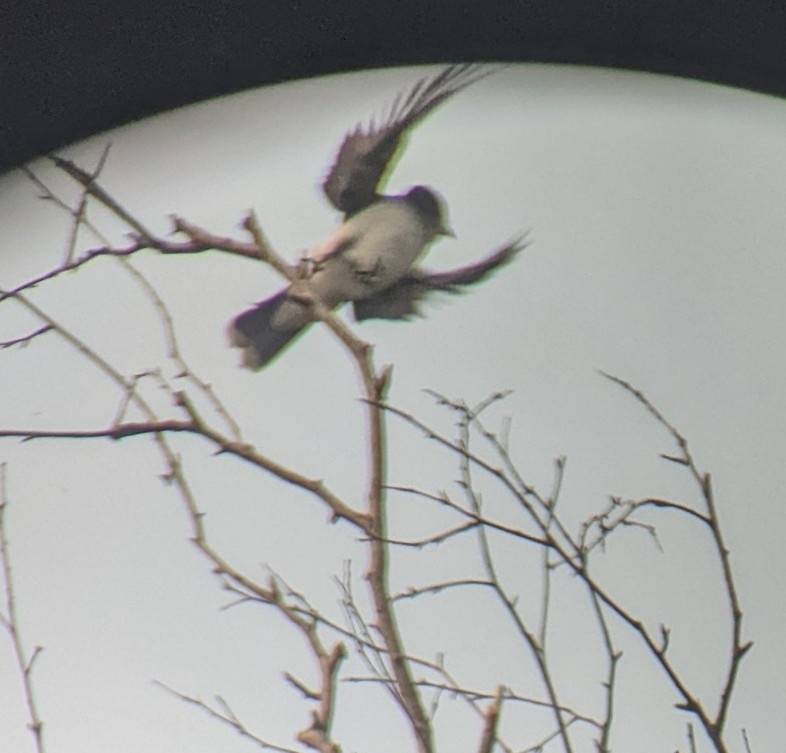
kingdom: Animalia
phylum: Chordata
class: Aves
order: Passeriformes
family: Tyrannidae
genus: Tyrannus
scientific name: Tyrannus tyrannus
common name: Eastern kingbird
